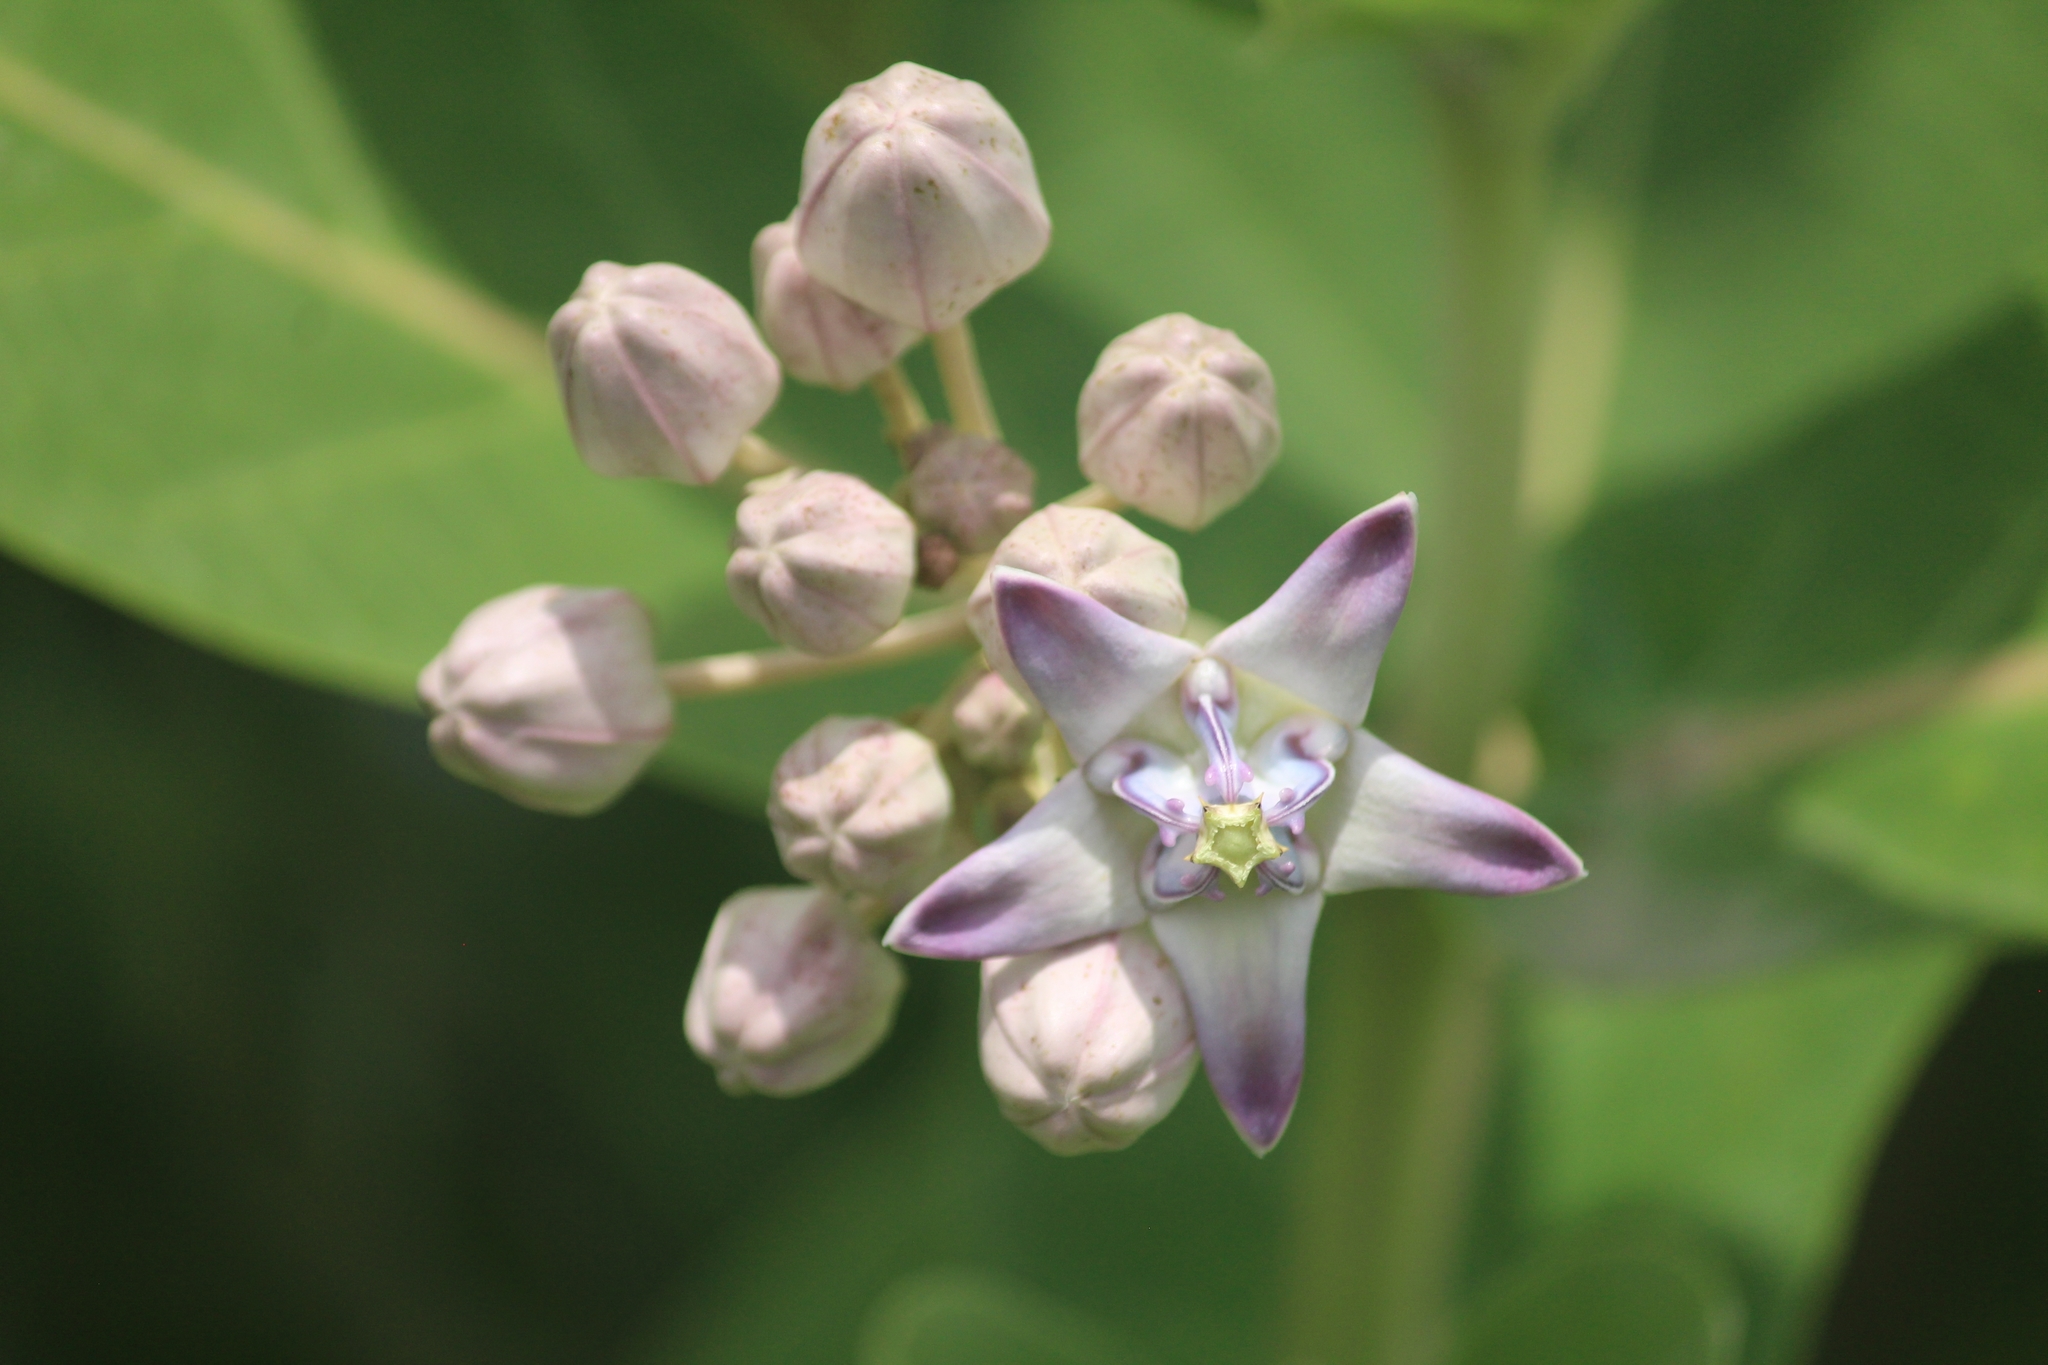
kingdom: Plantae
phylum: Tracheophyta
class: Magnoliopsida
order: Gentianales
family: Apocynaceae
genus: Calotropis
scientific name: Calotropis gigantea
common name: Crown flower
